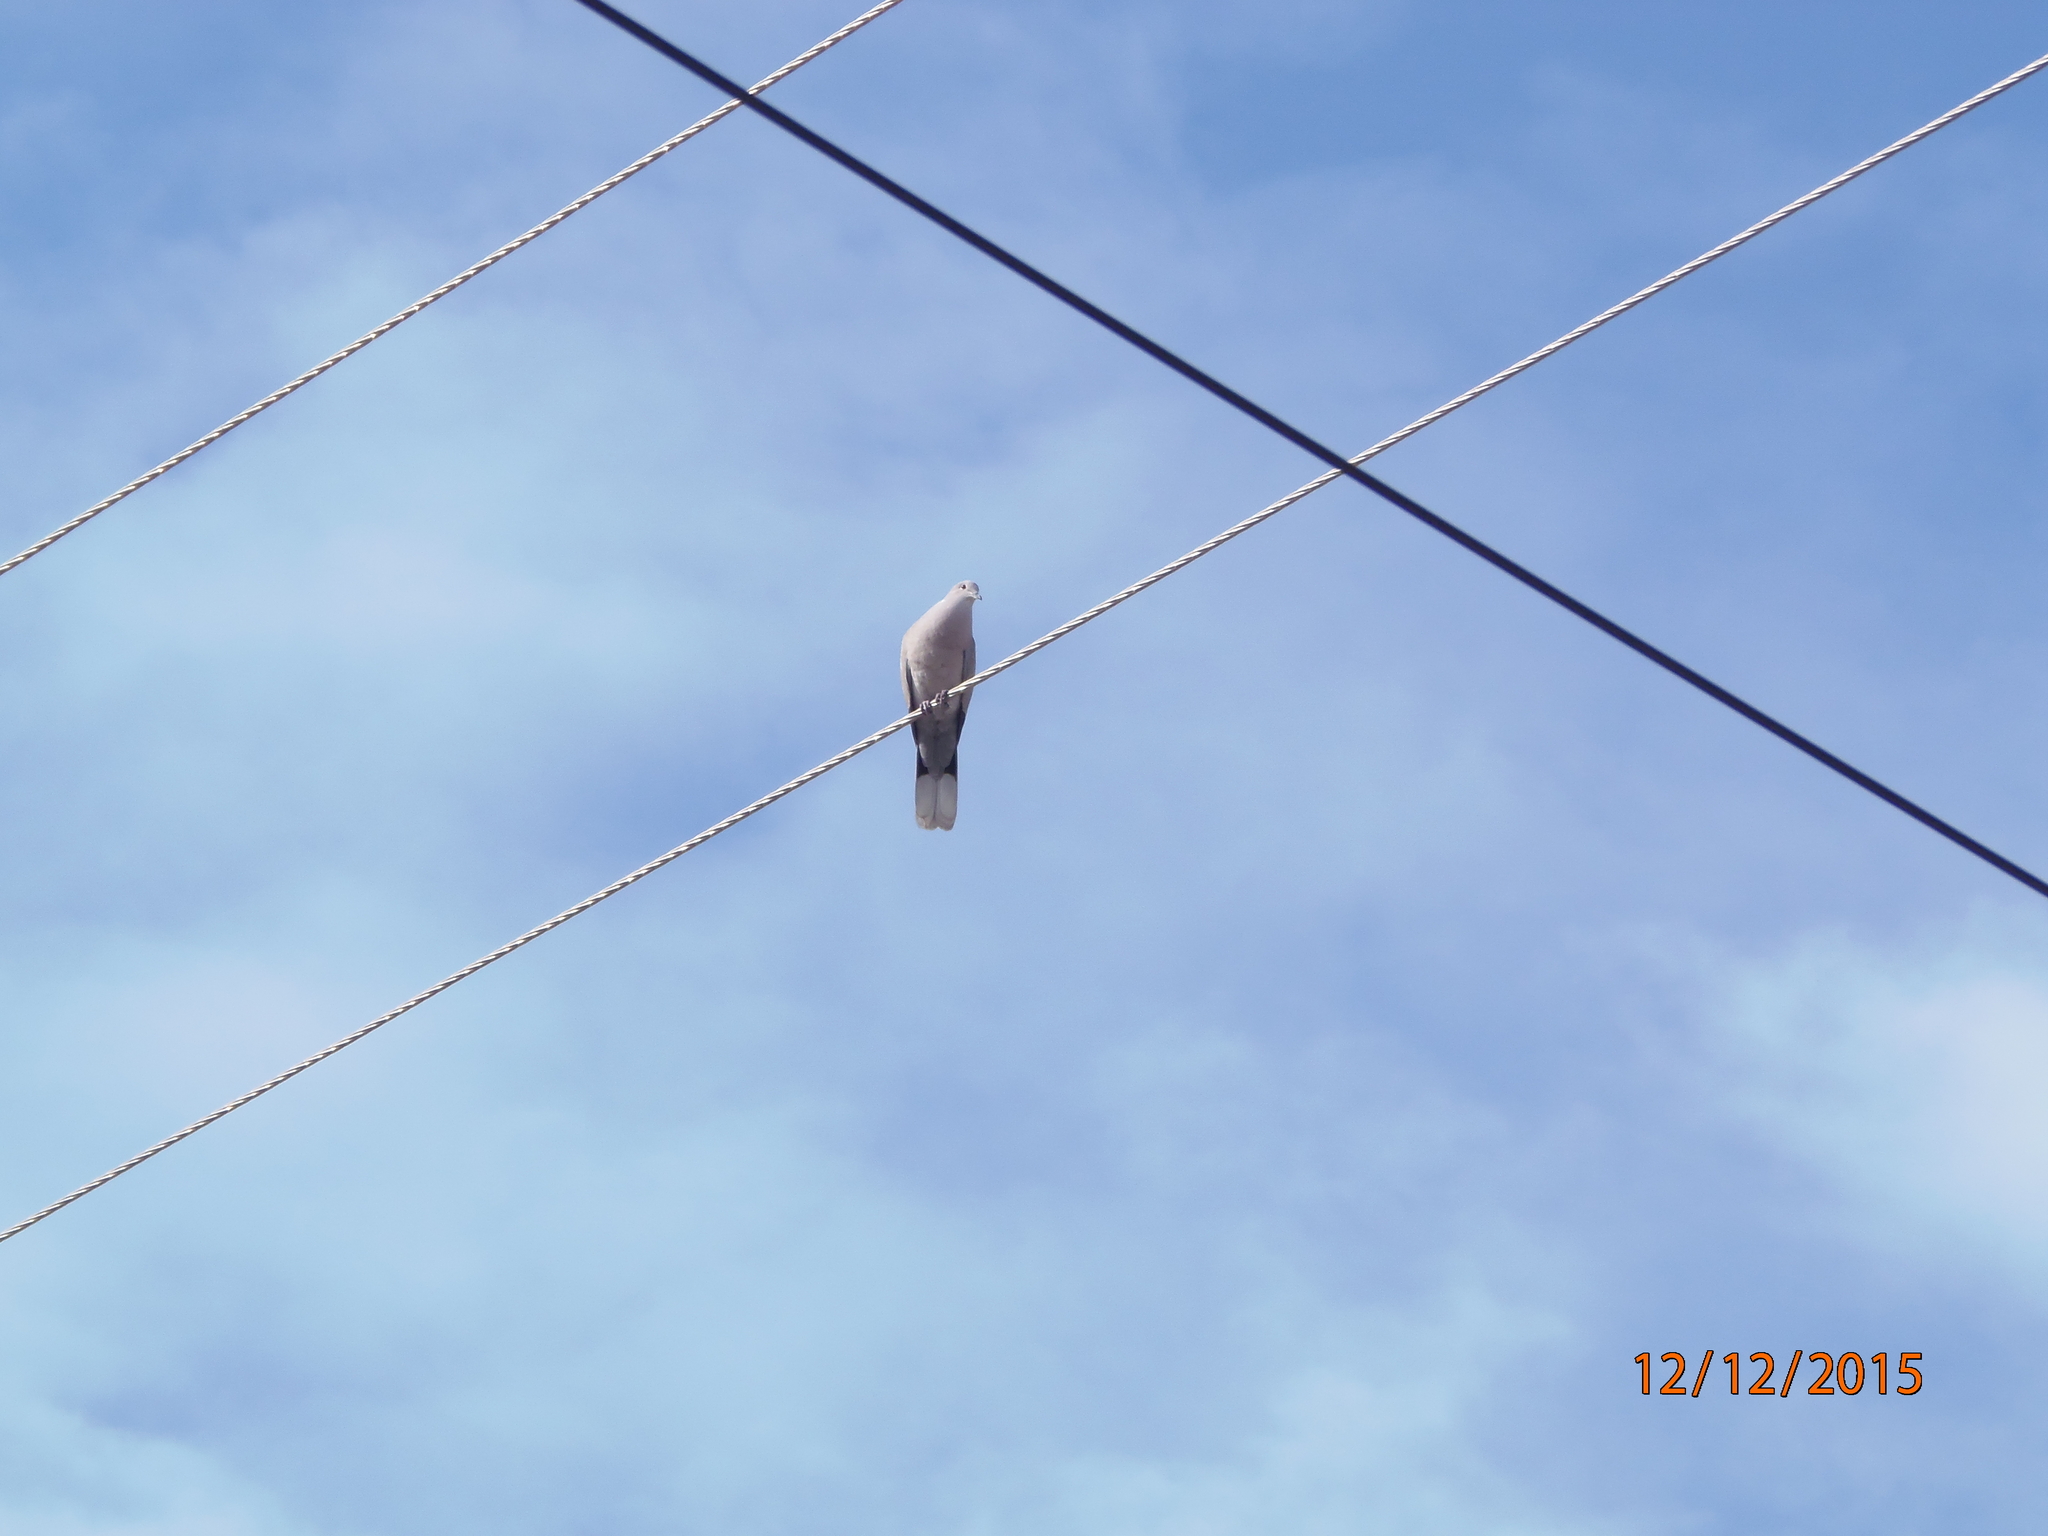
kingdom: Animalia
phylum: Chordata
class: Aves
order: Columbiformes
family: Columbidae
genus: Streptopelia
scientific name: Streptopelia decaocto
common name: Eurasian collared dove
